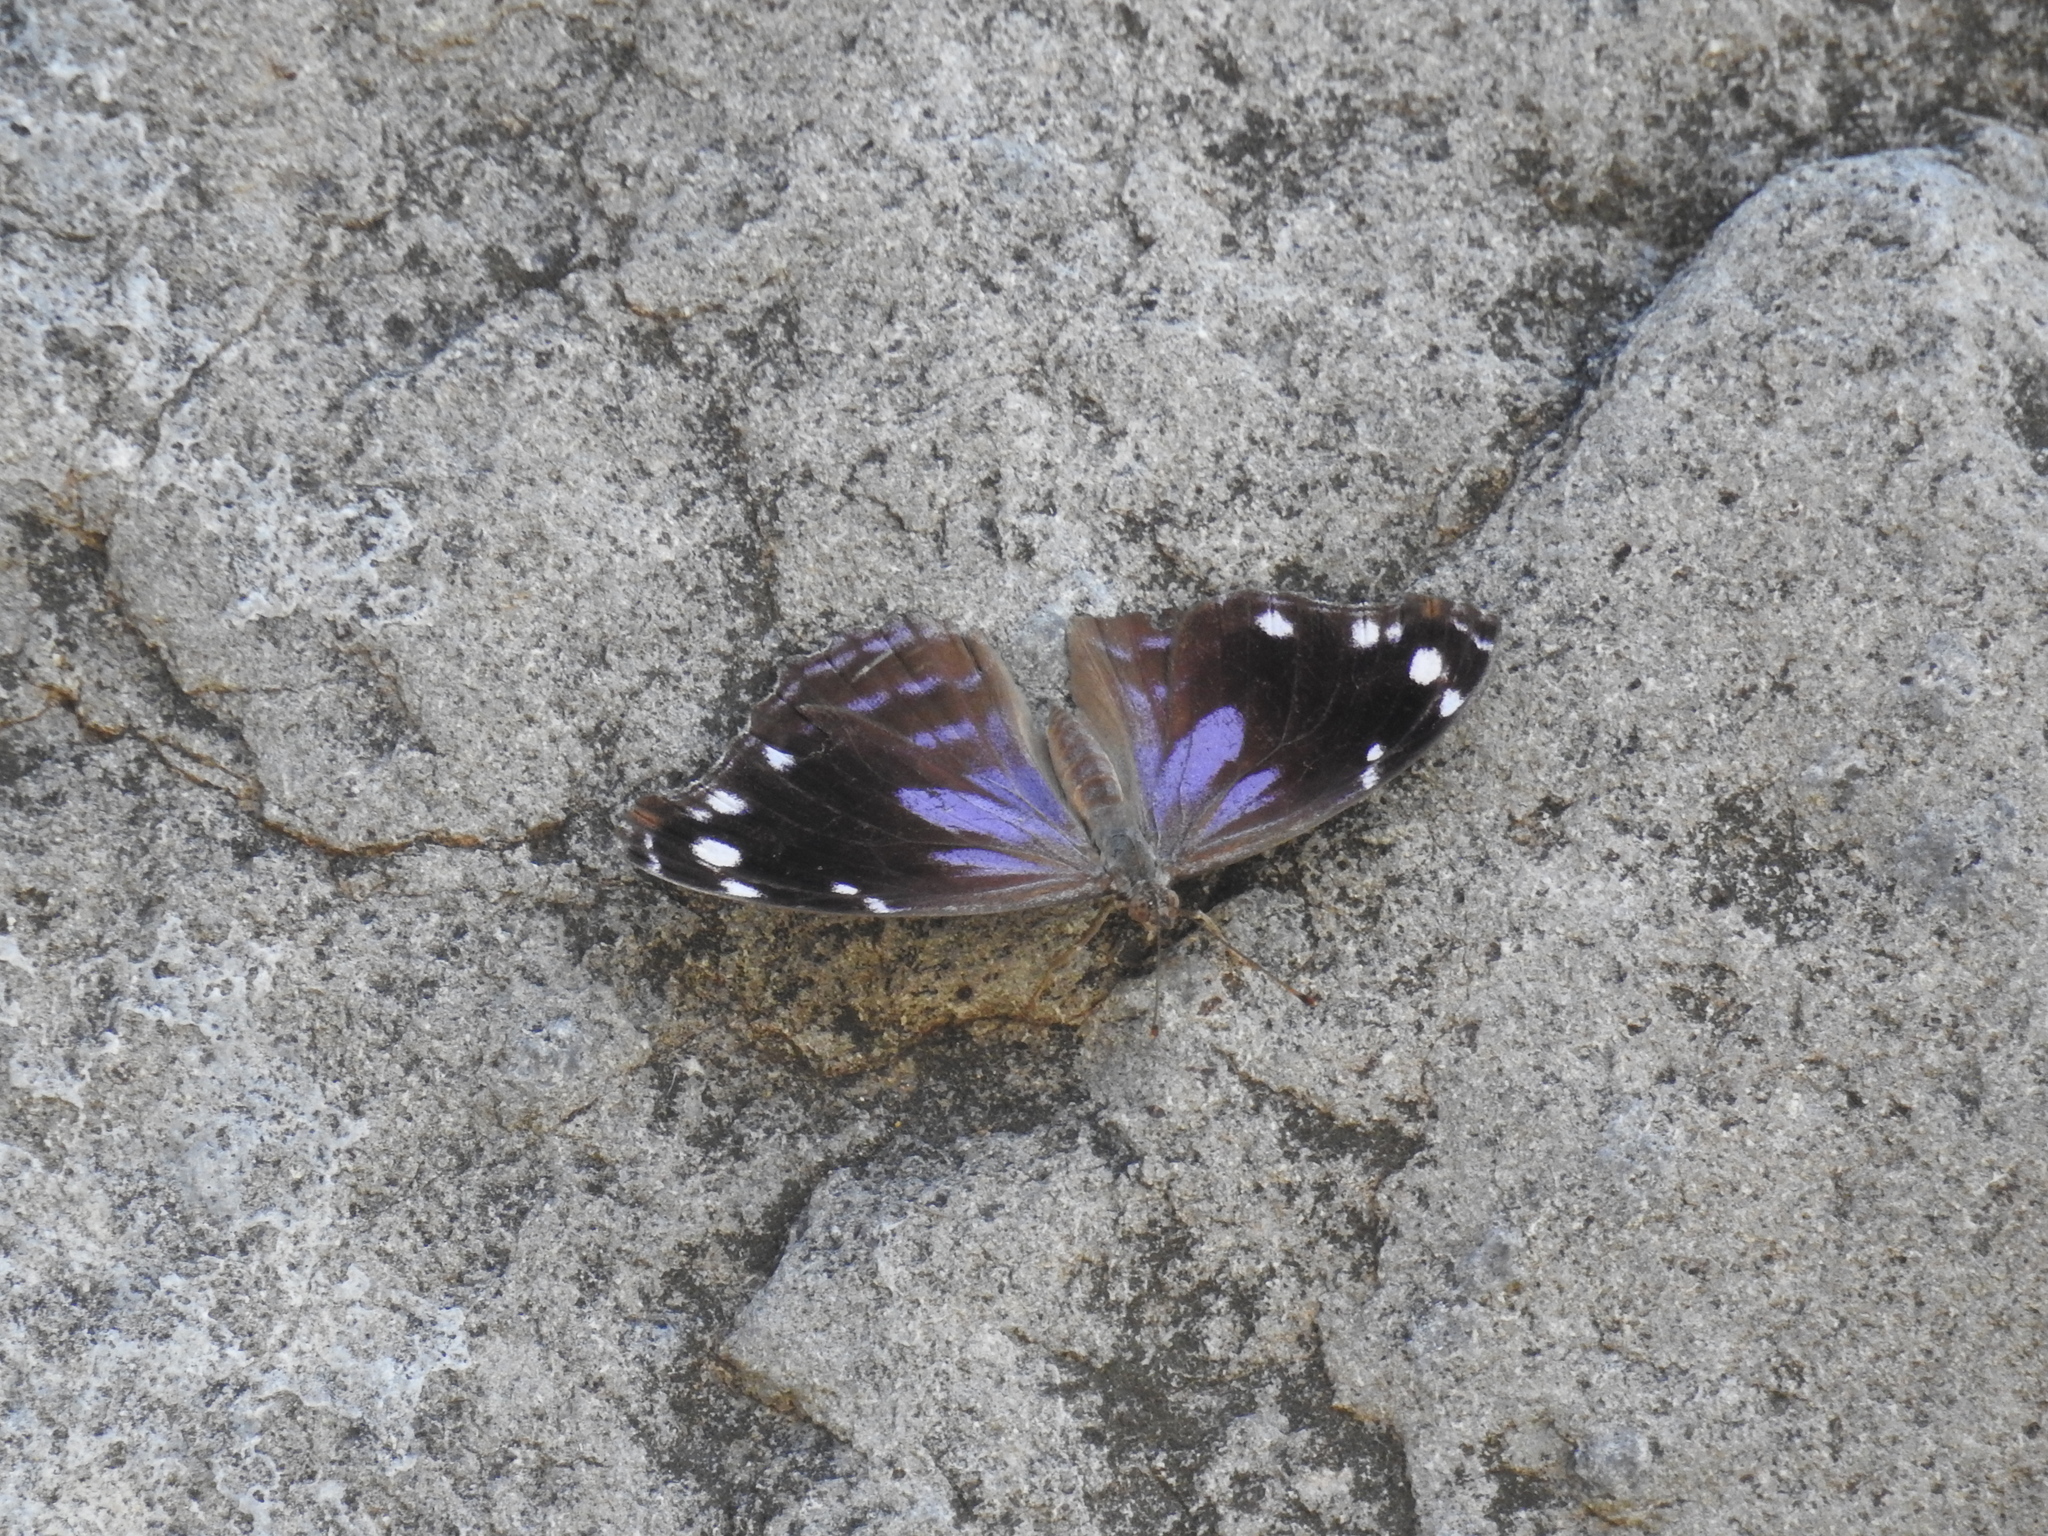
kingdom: Animalia
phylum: Arthropoda
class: Insecta
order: Lepidoptera
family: Nymphalidae
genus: Myscelia
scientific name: Myscelia cyananthe
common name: Blackened bluewing
